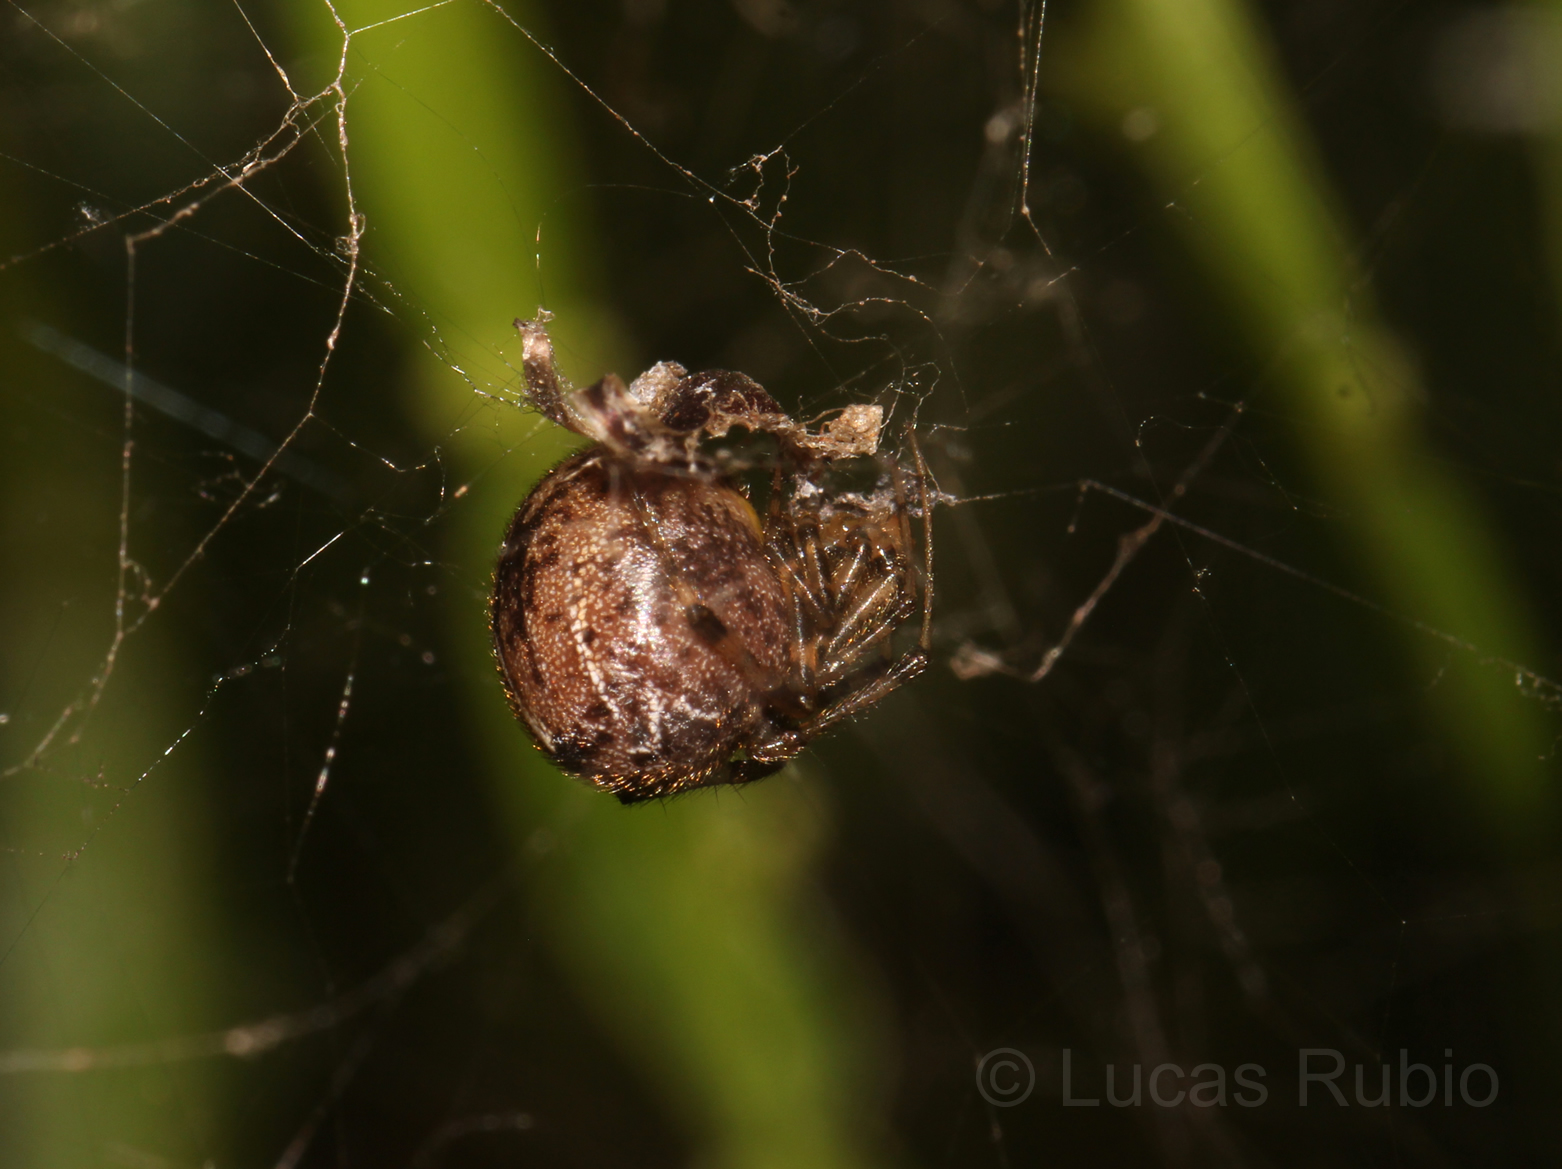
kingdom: Animalia
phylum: Arthropoda
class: Arachnida
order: Araneae
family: Theridiidae
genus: Tidarren
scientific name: Tidarren sisyphoides
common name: Cobweb spiders
